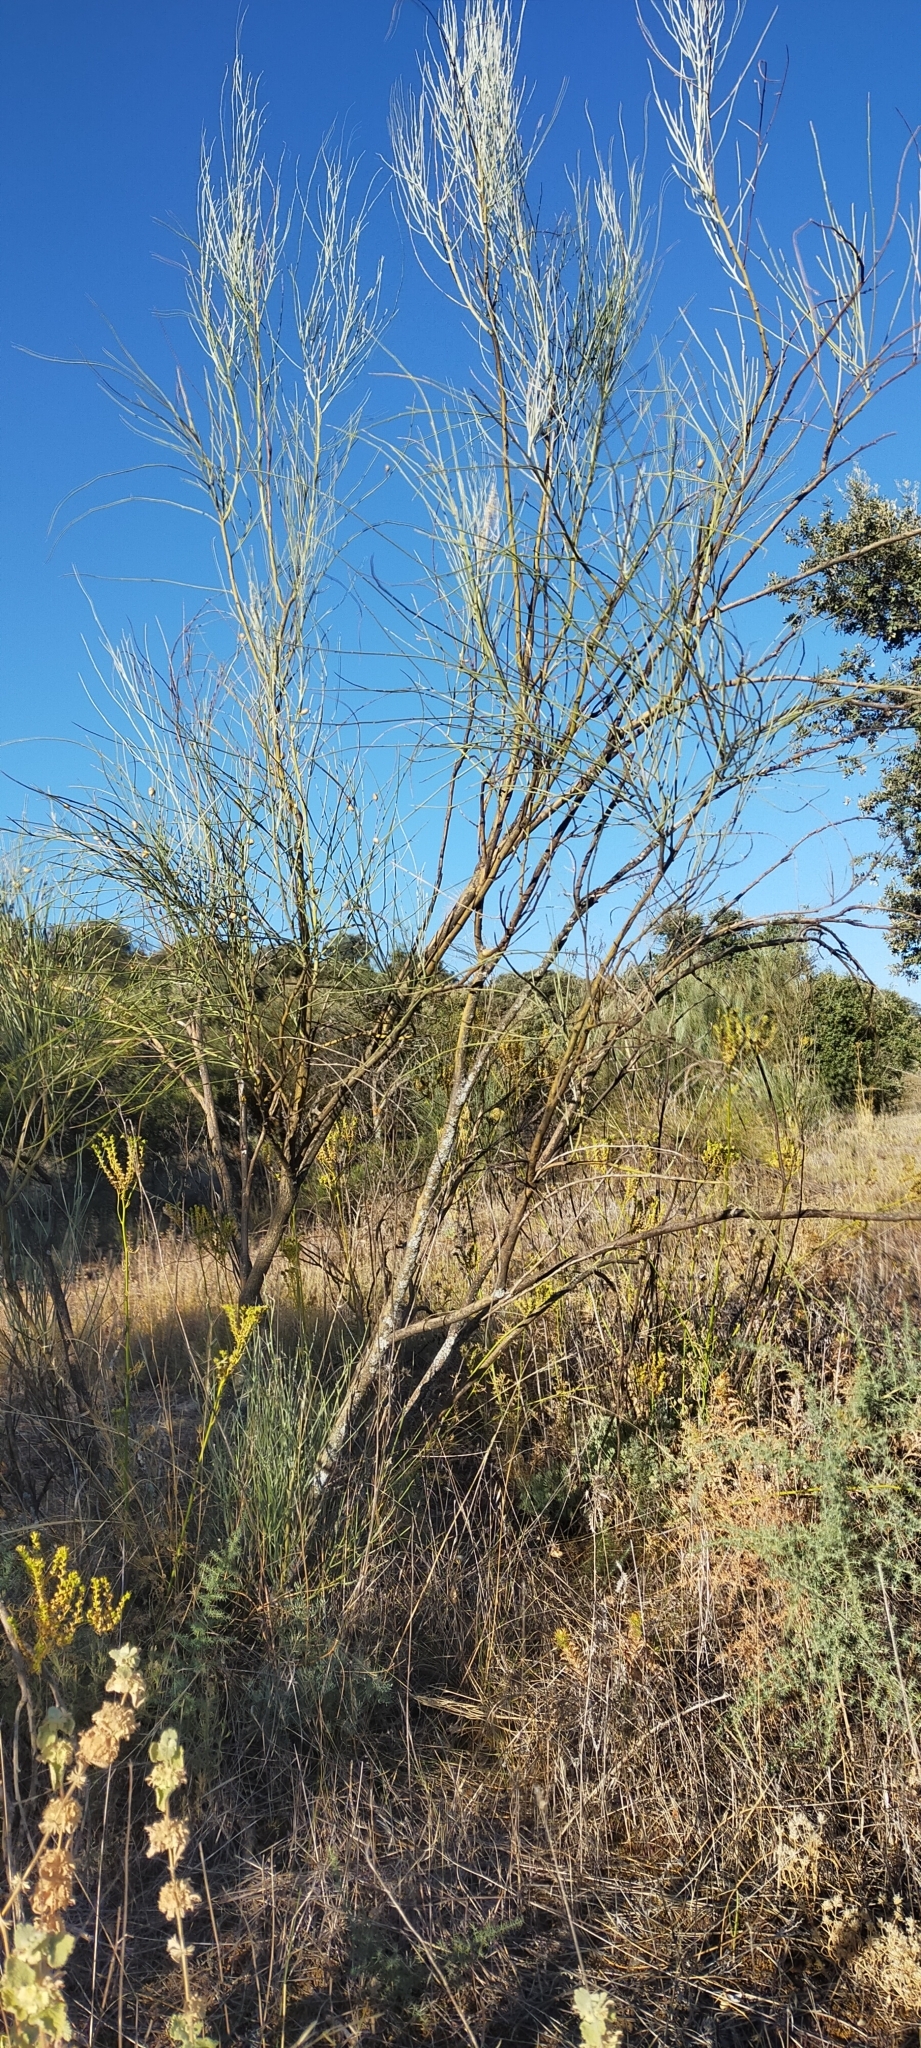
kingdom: Plantae
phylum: Tracheophyta
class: Magnoliopsida
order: Fabales
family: Fabaceae
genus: Retama
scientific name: Retama sphaerocarpa
